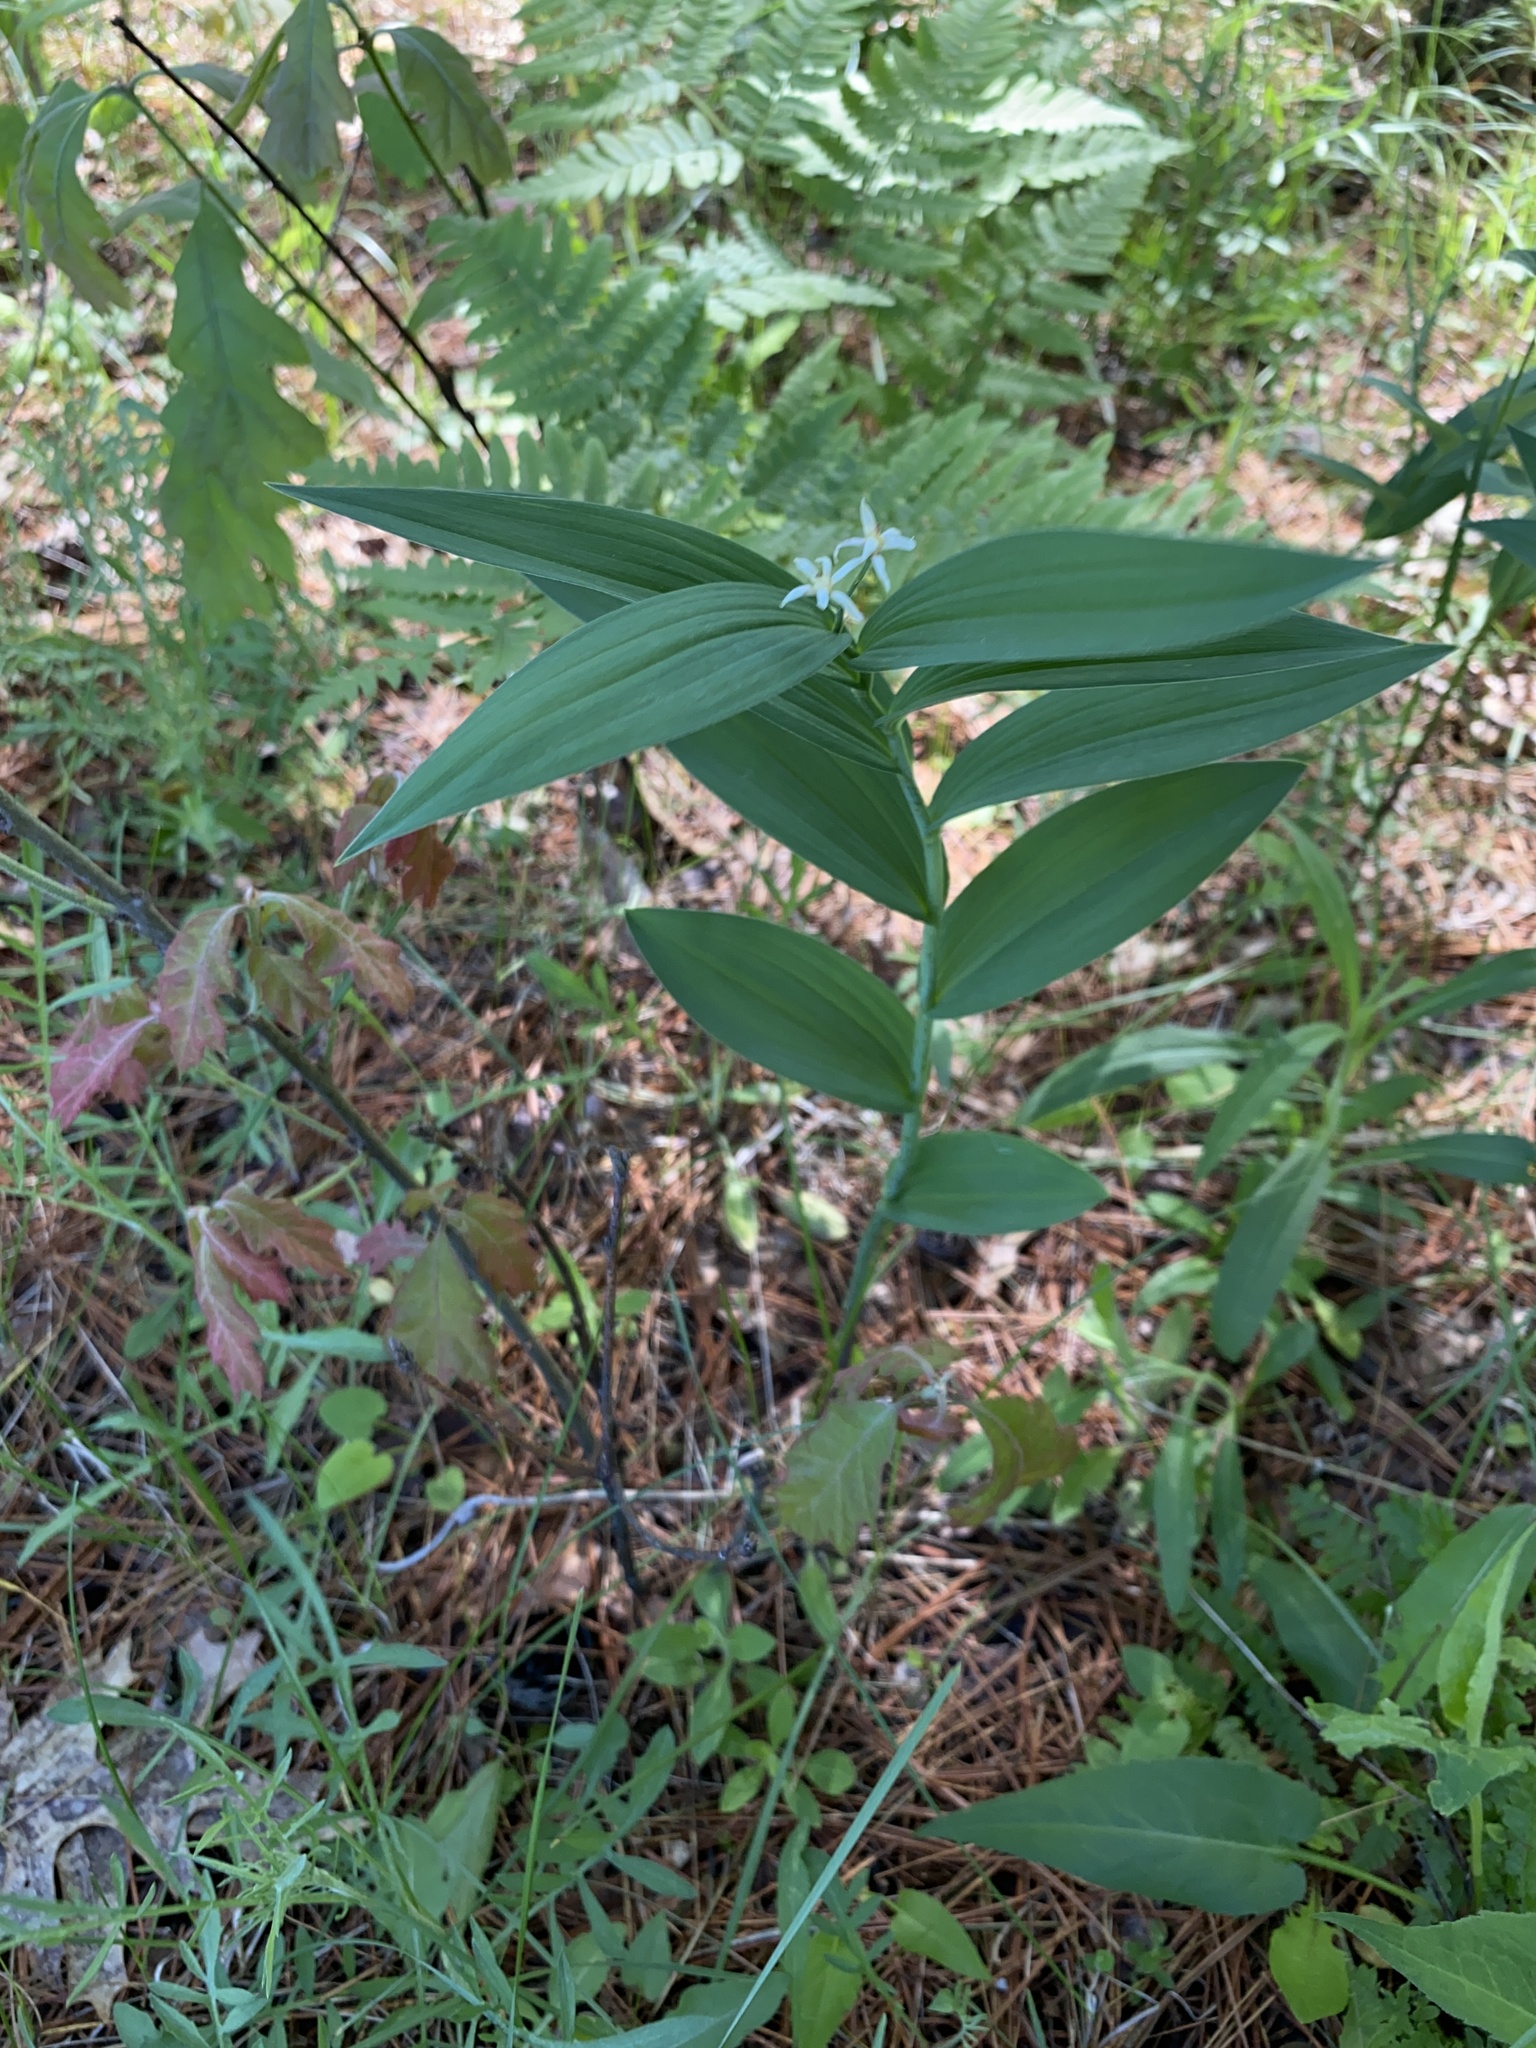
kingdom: Plantae
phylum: Tracheophyta
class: Liliopsida
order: Asparagales
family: Asparagaceae
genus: Maianthemum
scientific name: Maianthemum stellatum
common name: Little false solomon's seal
